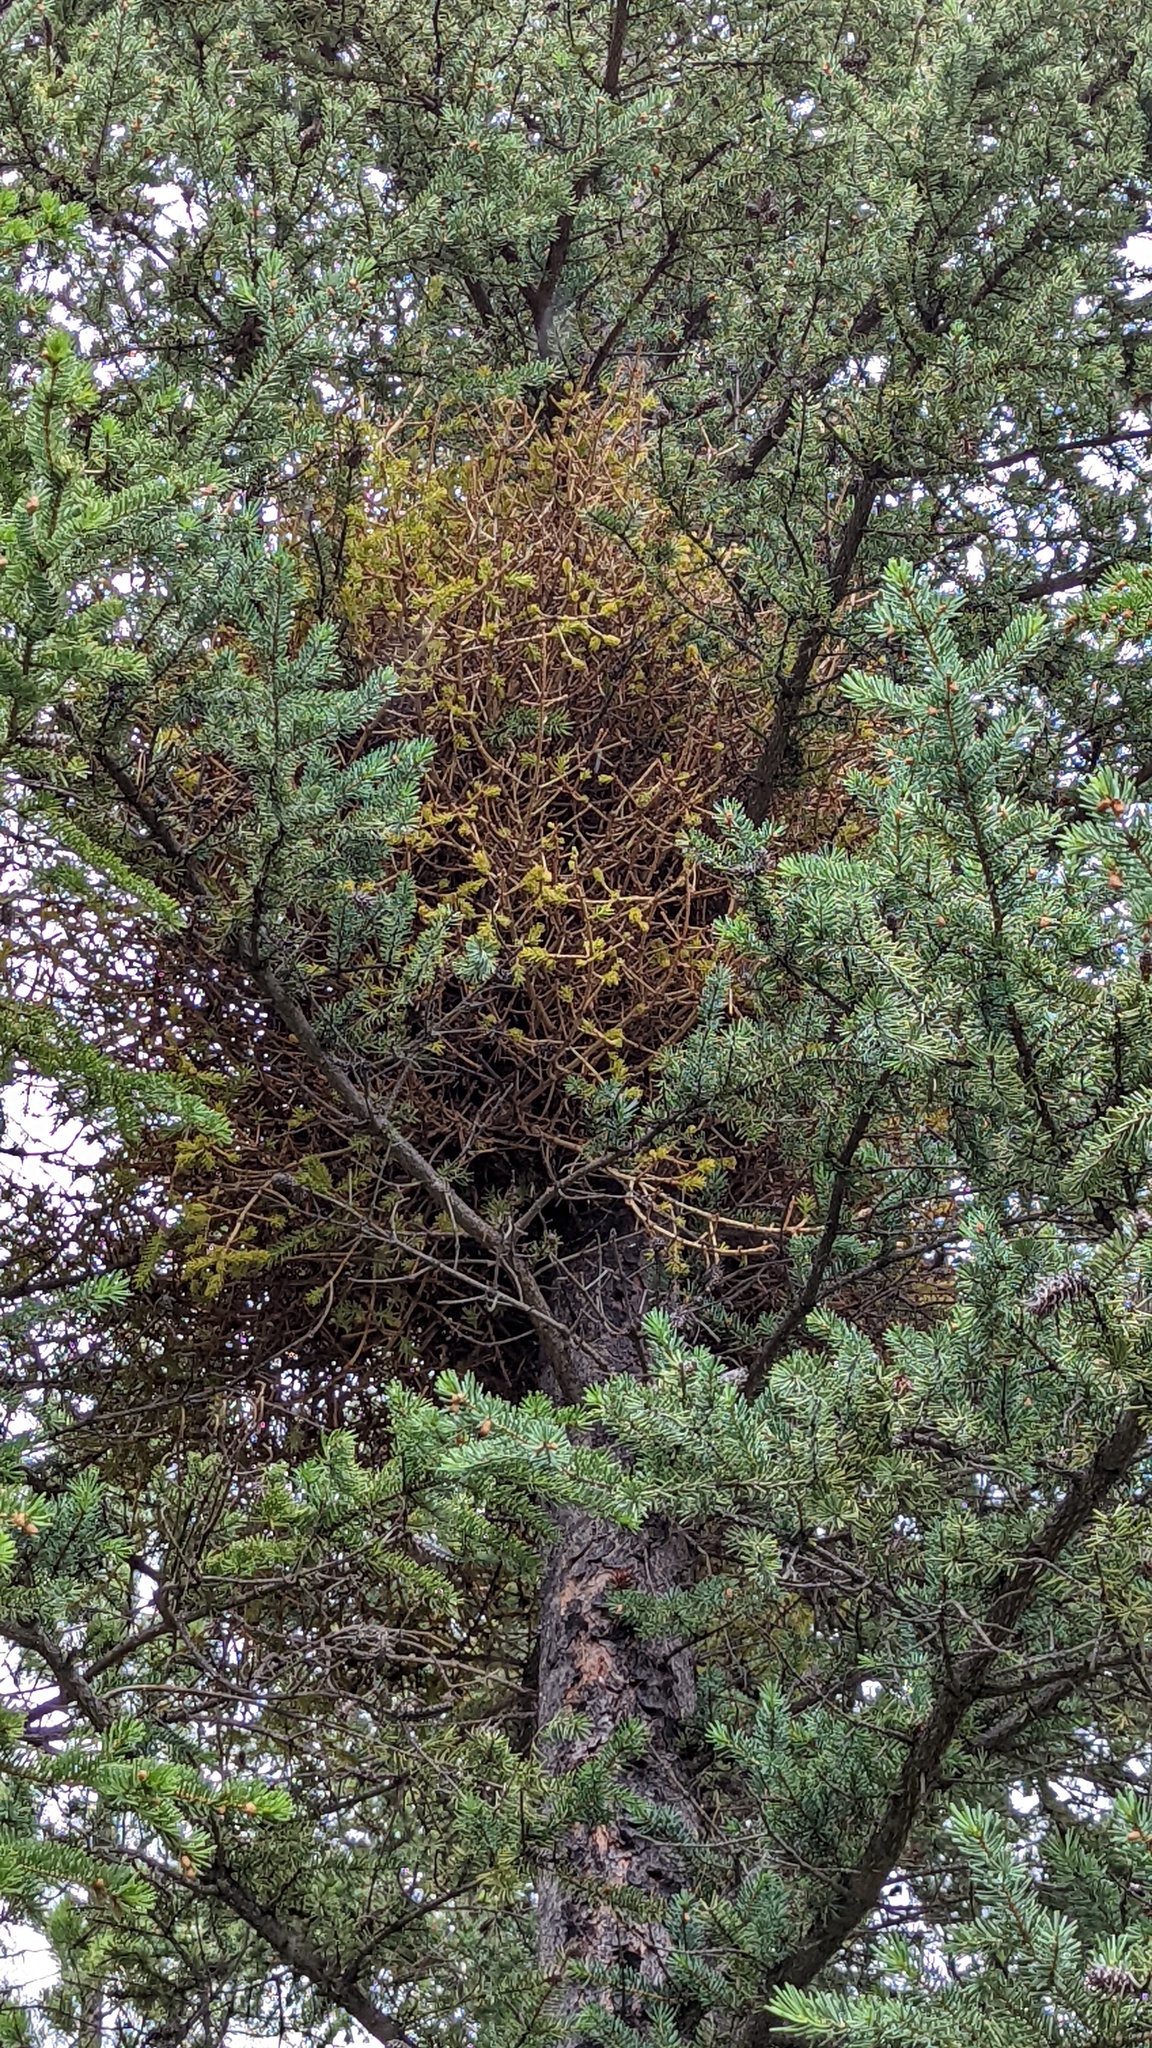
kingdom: Fungi
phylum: Basidiomycota
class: Pucciniomycetes
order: Pucciniales
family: Coleosporiaceae
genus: Chrysomyxa
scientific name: Chrysomyxa arctostaphyli
